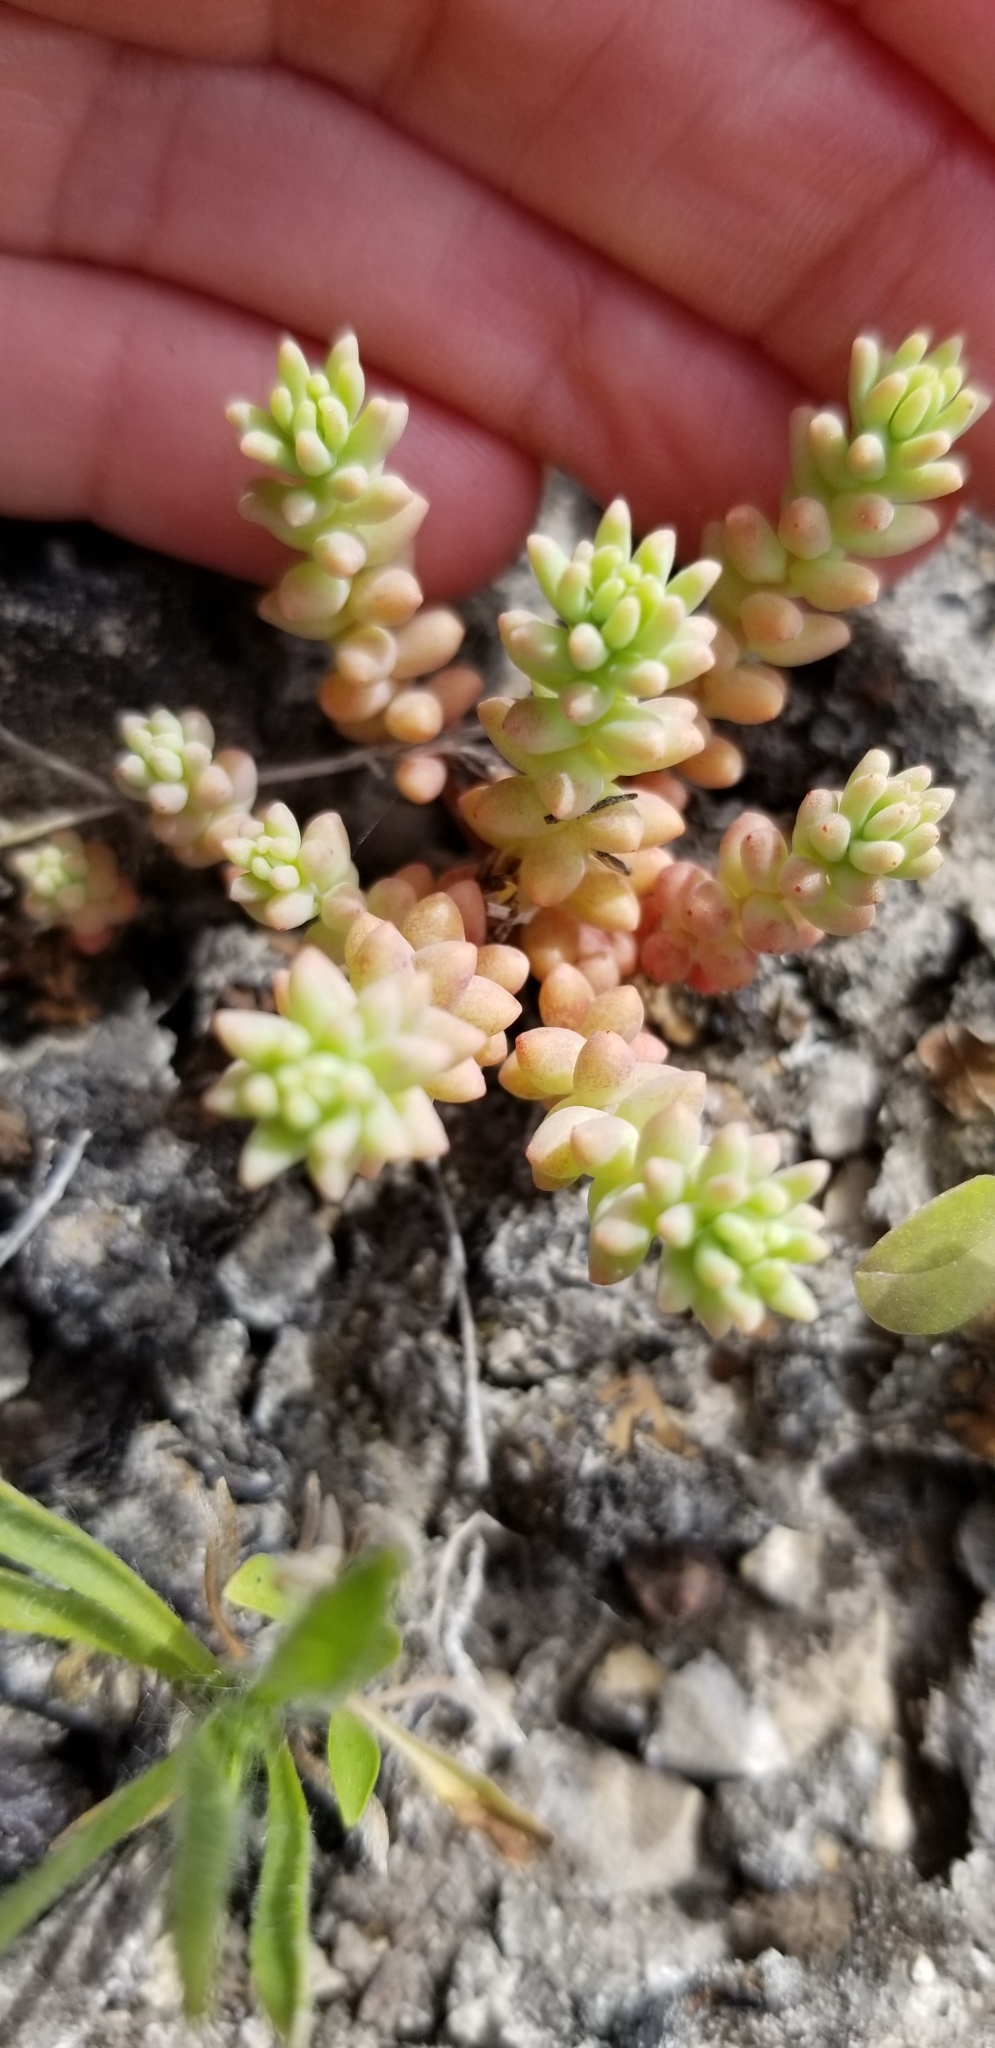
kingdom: Plantae
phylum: Tracheophyta
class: Magnoliopsida
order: Saxifragales
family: Crassulaceae
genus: Sedum
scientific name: Sedum nuttallii
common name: Yellow stonecrop
